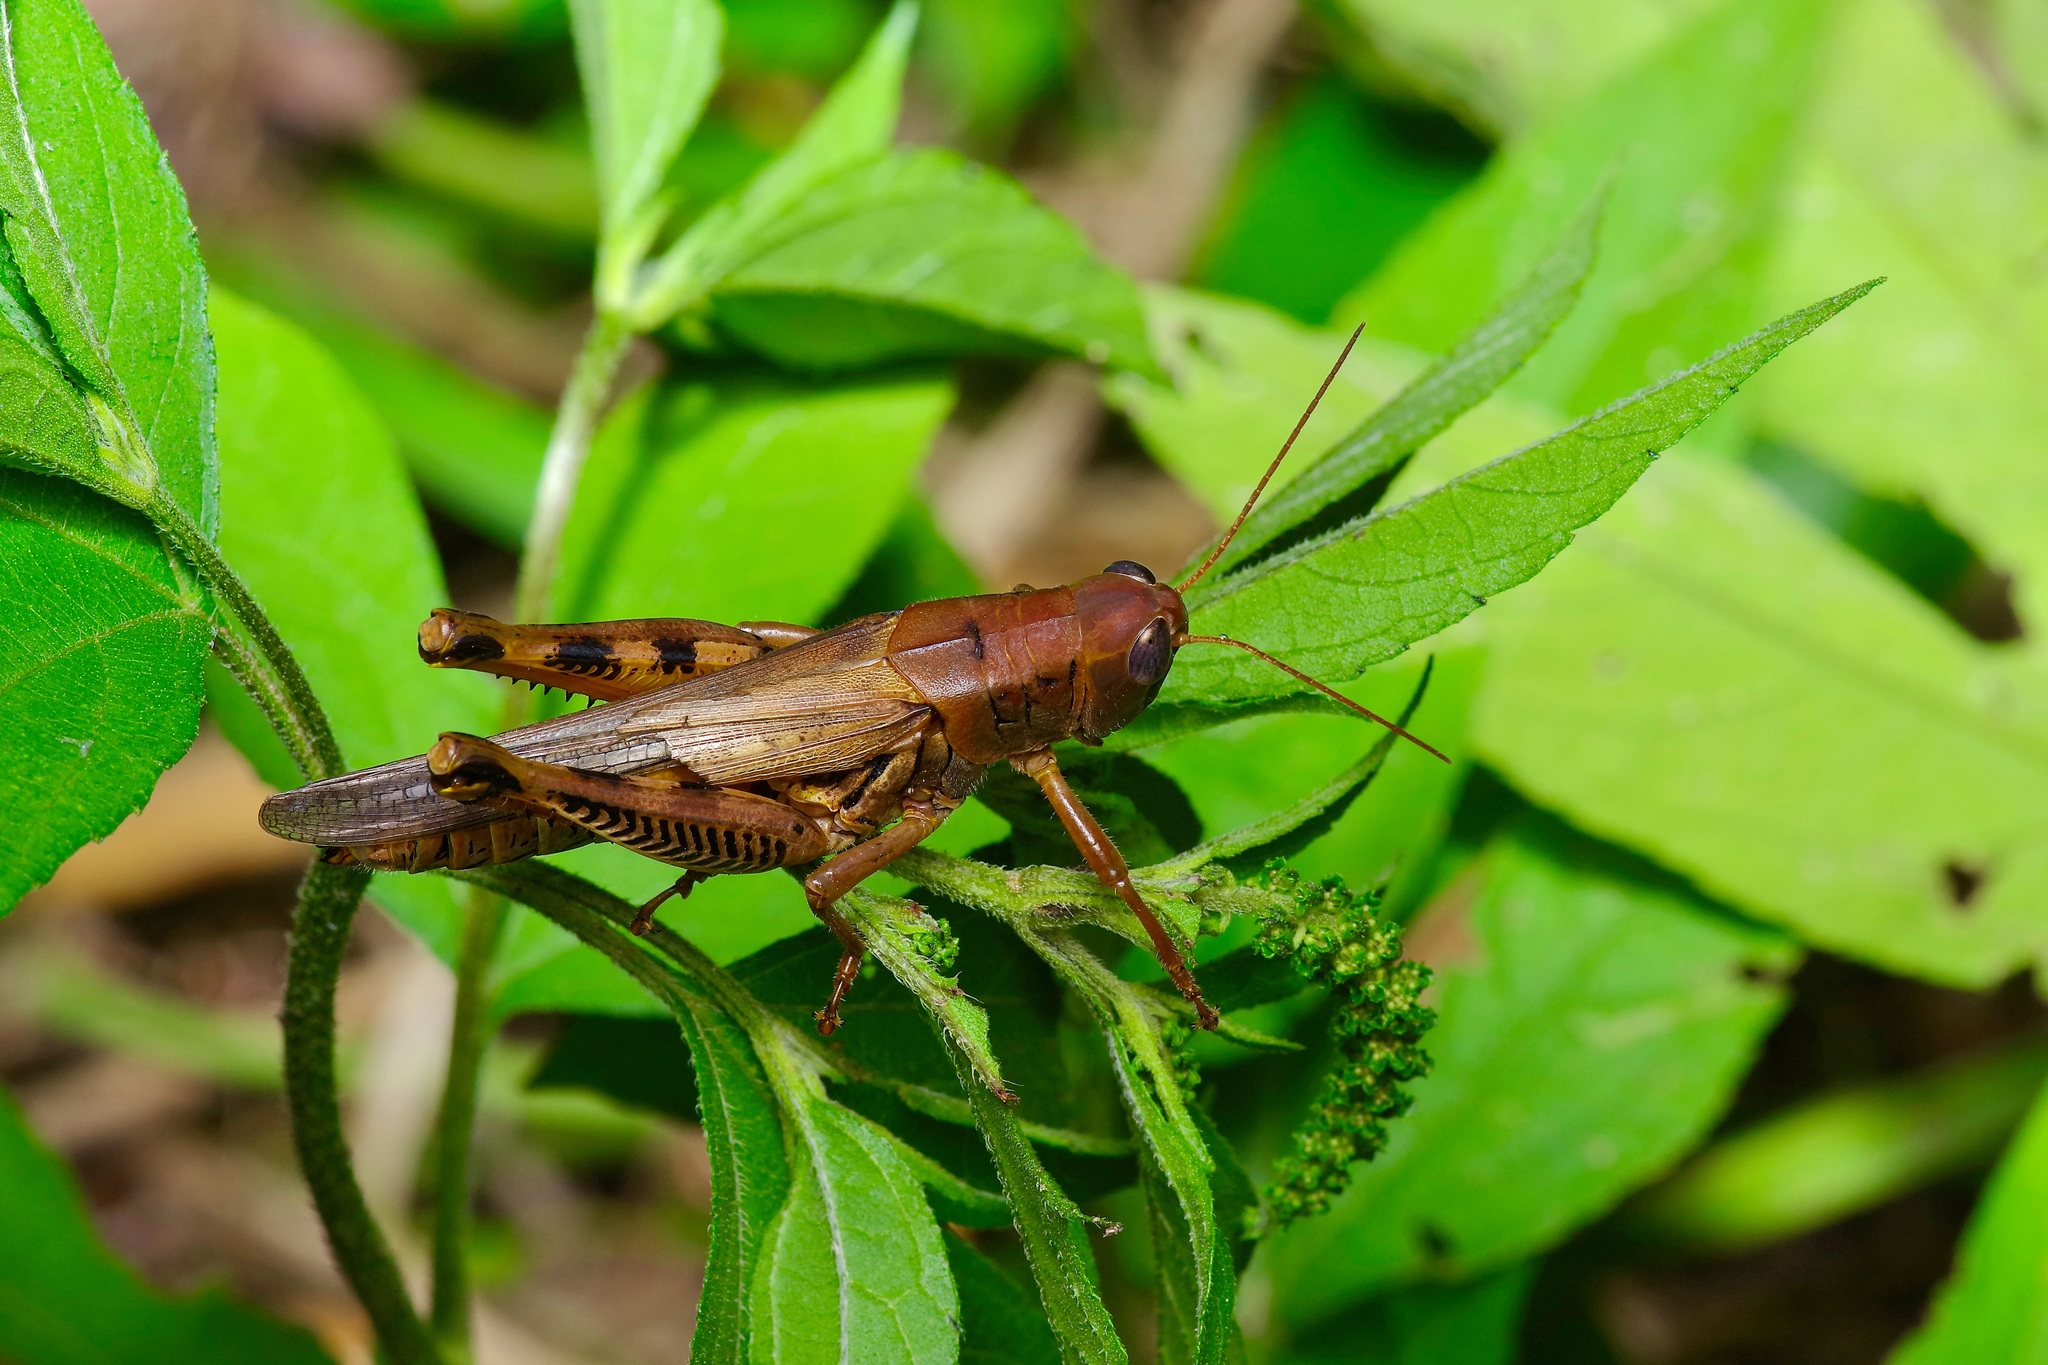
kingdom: Animalia
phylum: Arthropoda
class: Insecta
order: Orthoptera
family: Acrididae
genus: Melanoplus
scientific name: Melanoplus differentialis
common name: Differential grasshopper
